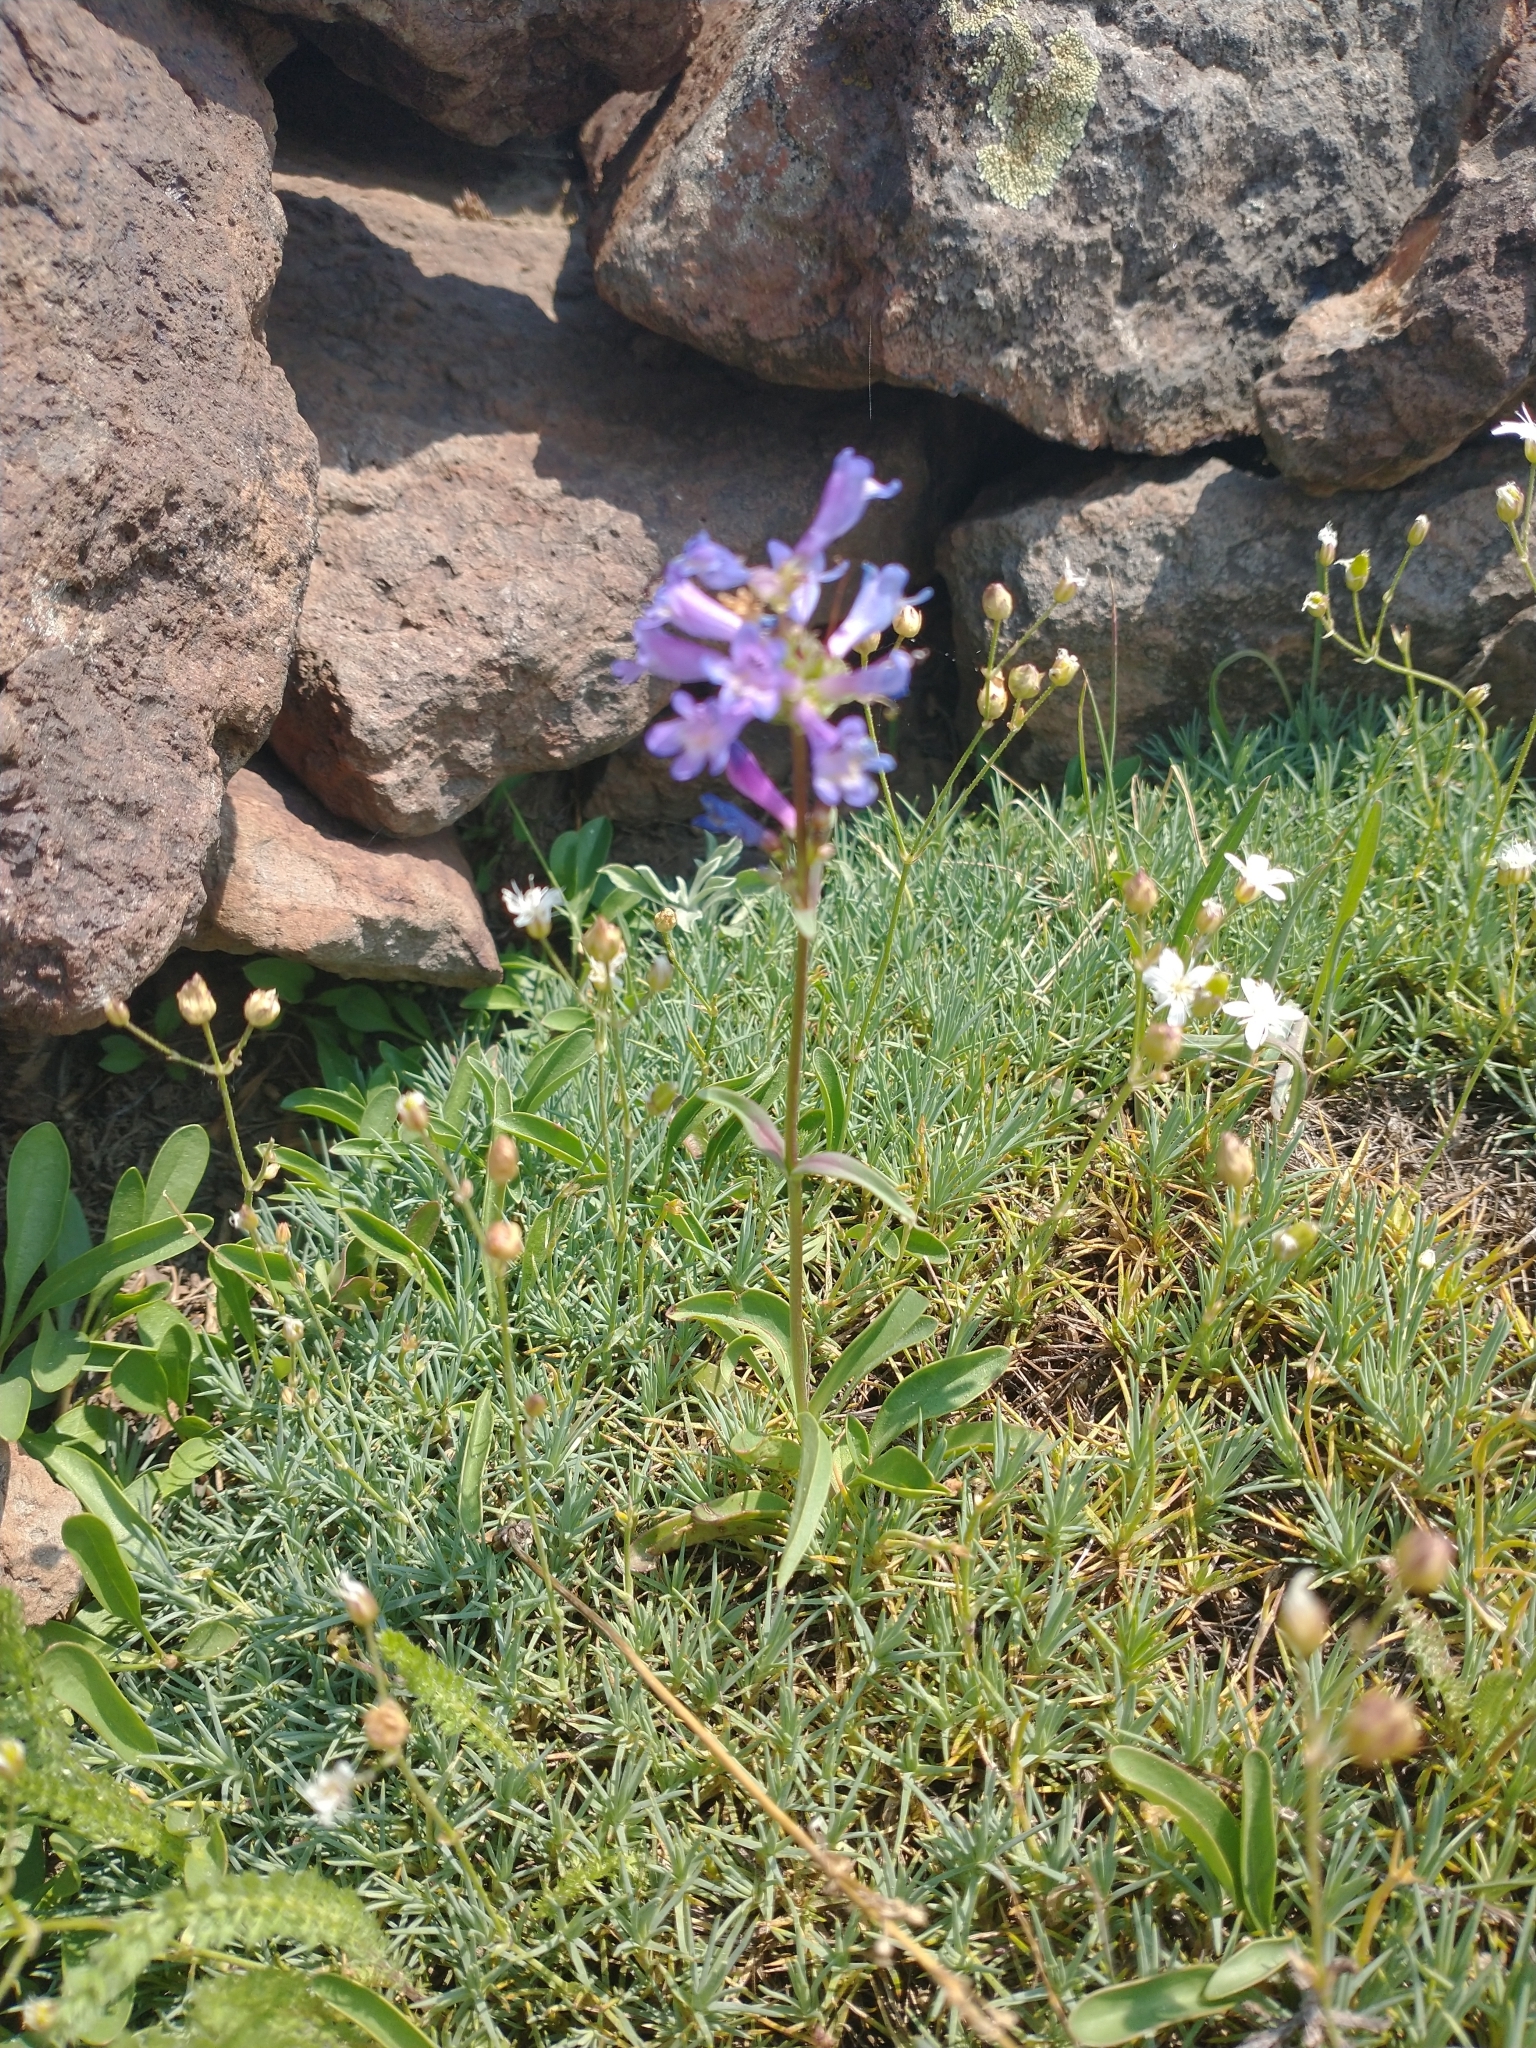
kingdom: Plantae
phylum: Tracheophyta
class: Magnoliopsida
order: Lamiales
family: Plantaginaceae
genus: Penstemon
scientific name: Penstemon procerus
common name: Small-flower penstemon
